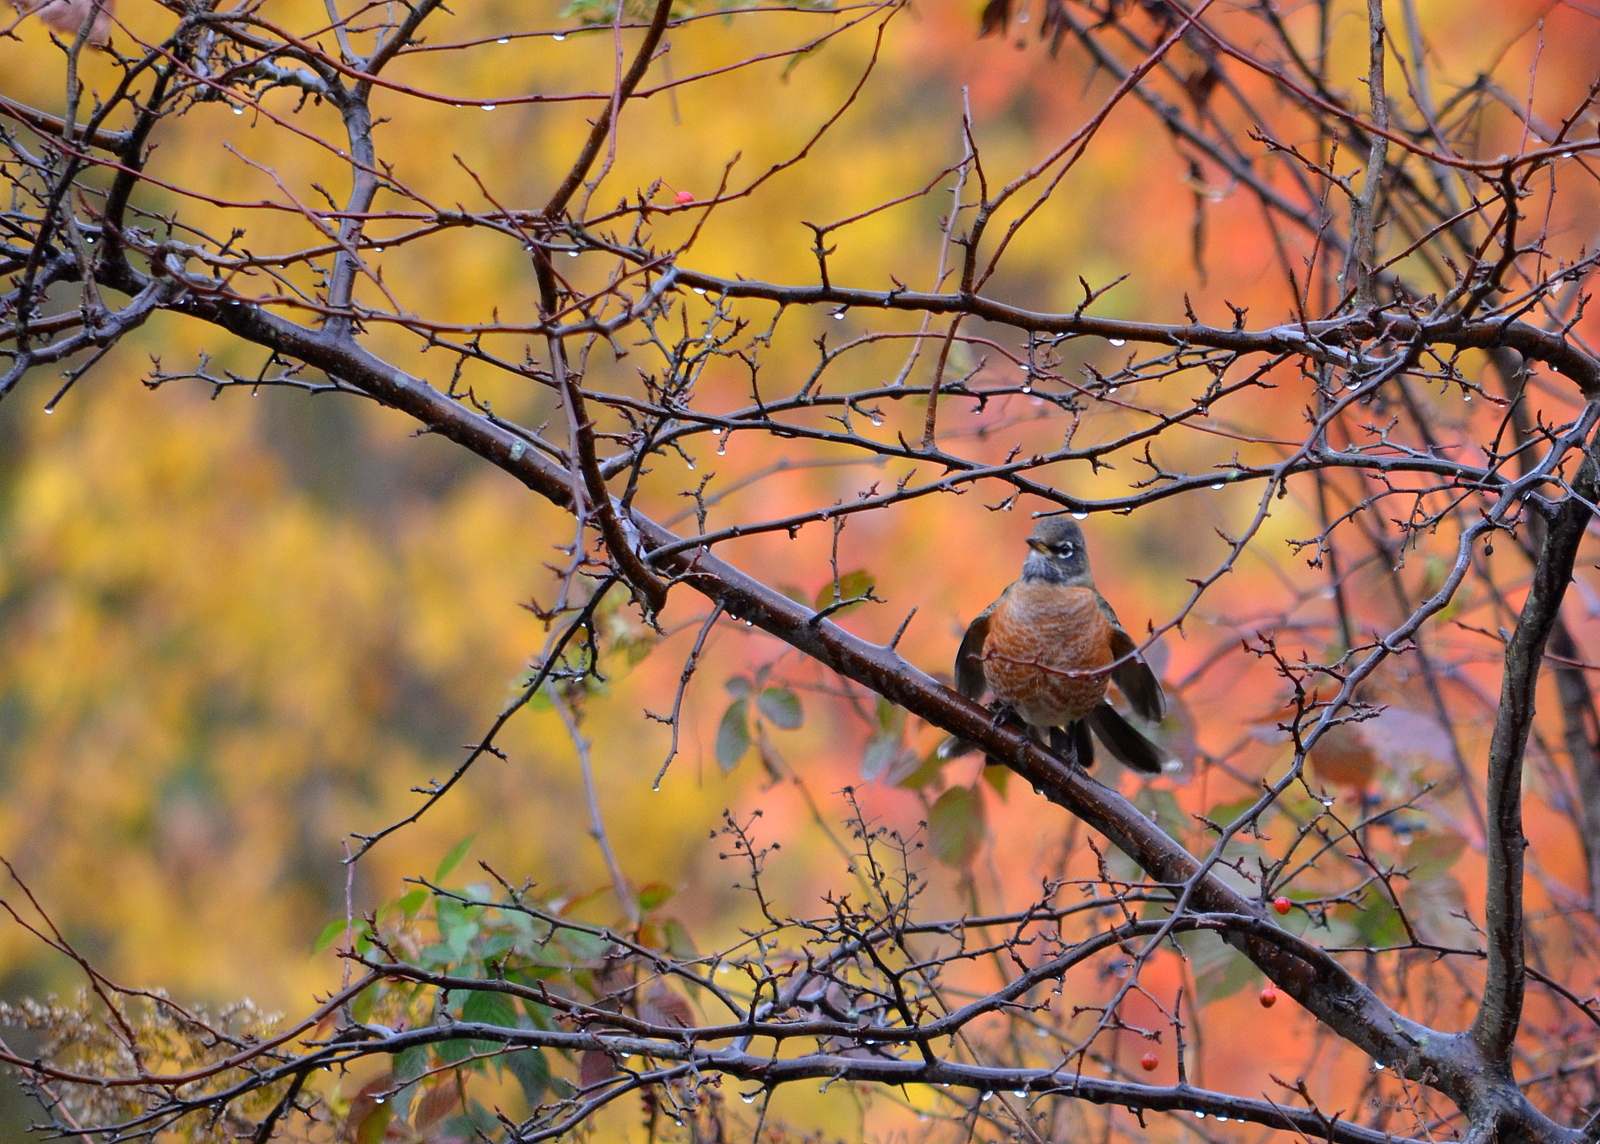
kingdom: Animalia
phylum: Chordata
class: Aves
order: Passeriformes
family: Turdidae
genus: Turdus
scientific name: Turdus migratorius
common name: American robin
